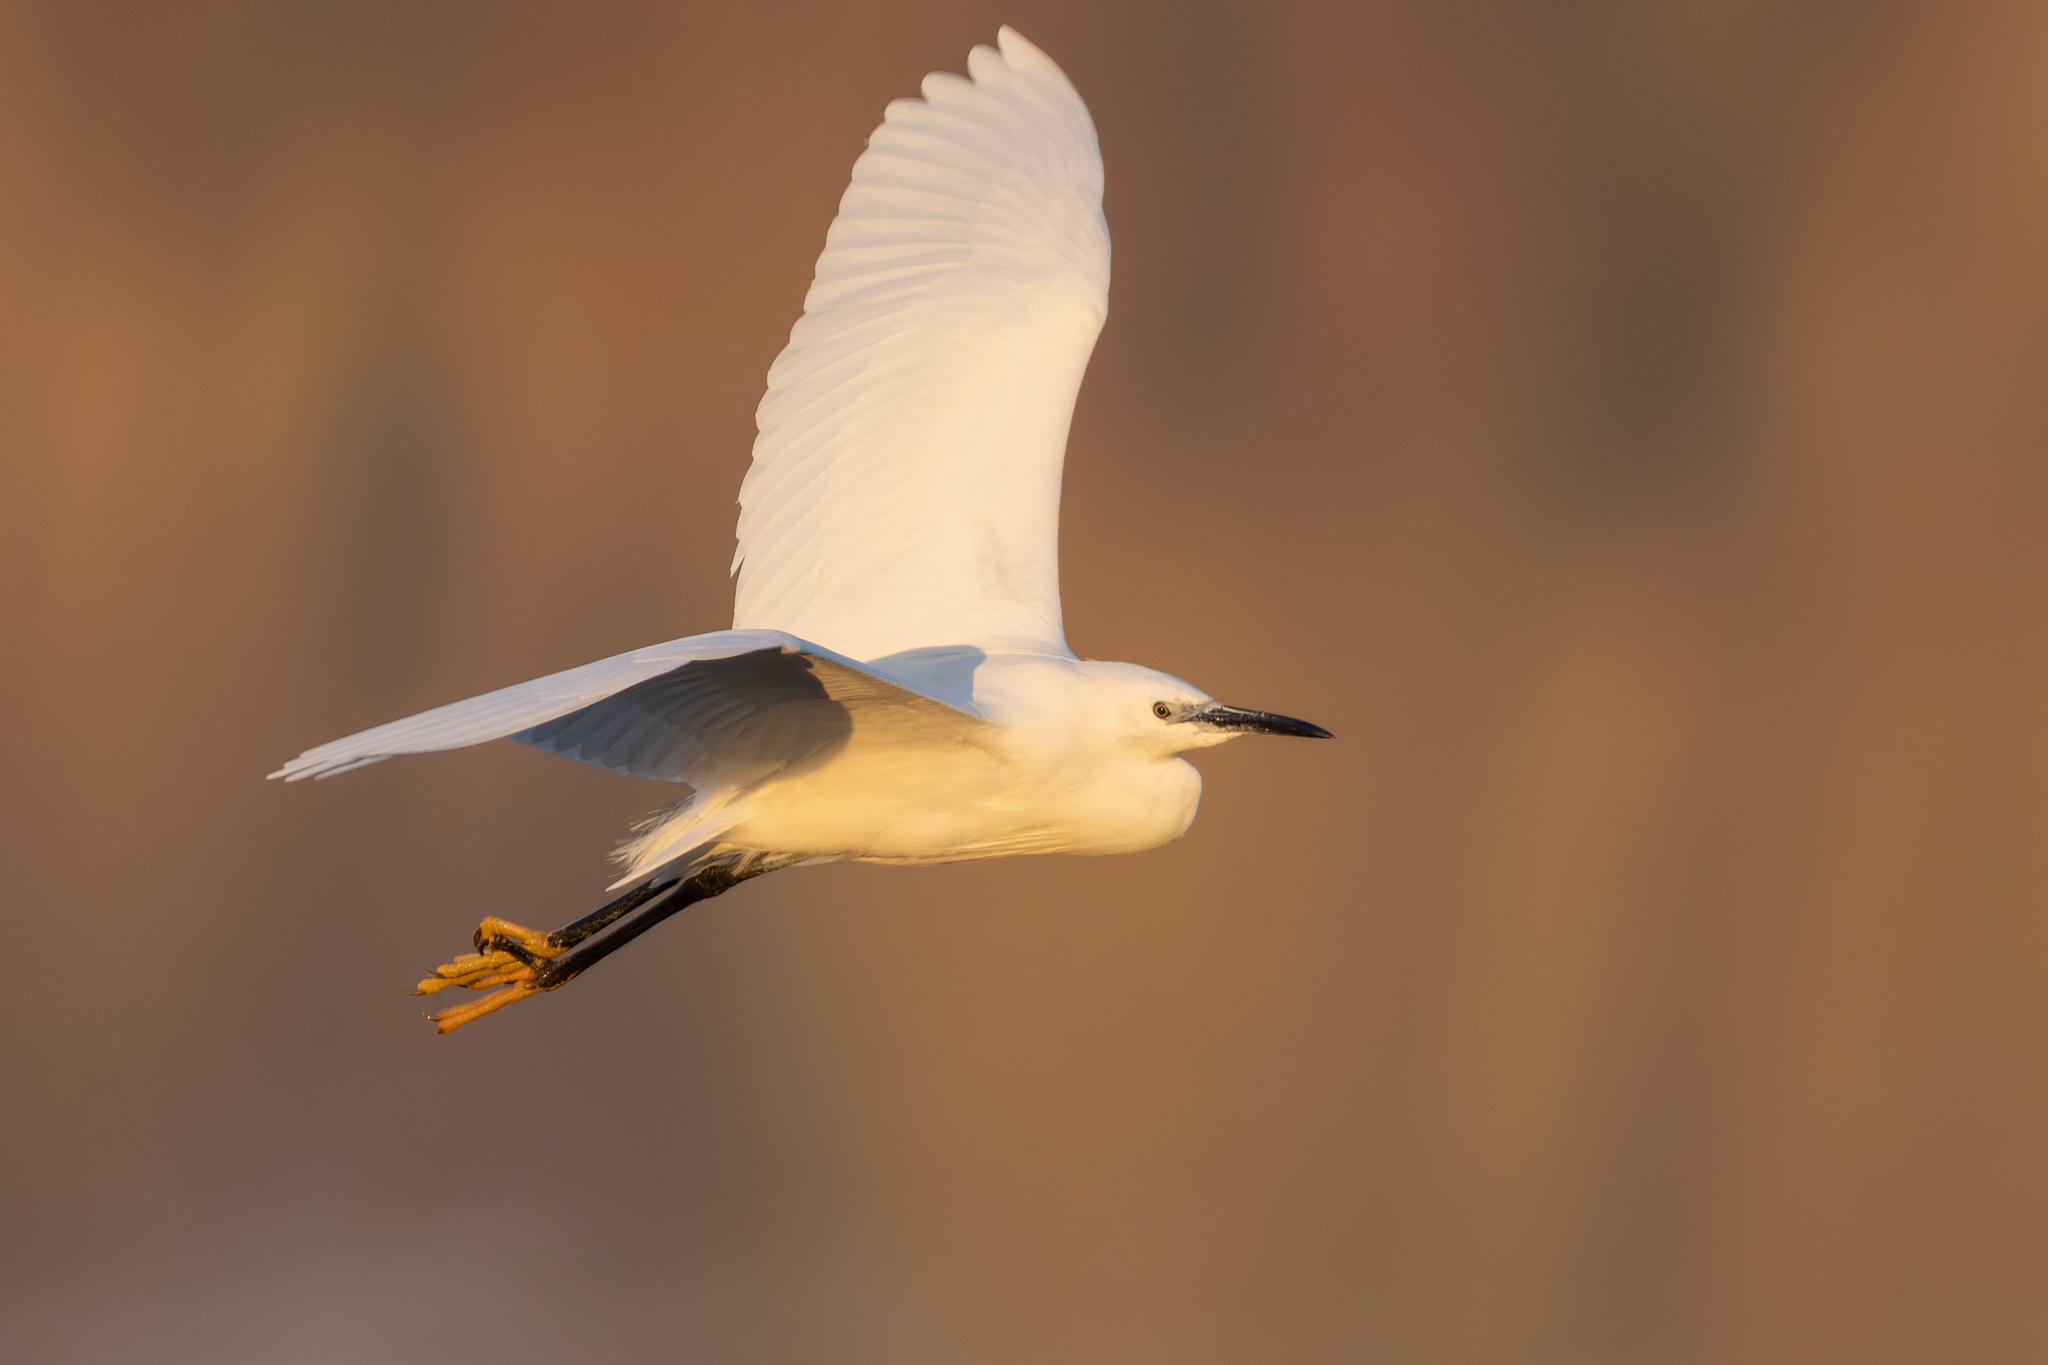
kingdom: Animalia
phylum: Chordata
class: Aves
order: Pelecaniformes
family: Ardeidae
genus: Egretta
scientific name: Egretta garzetta
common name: Little egret
